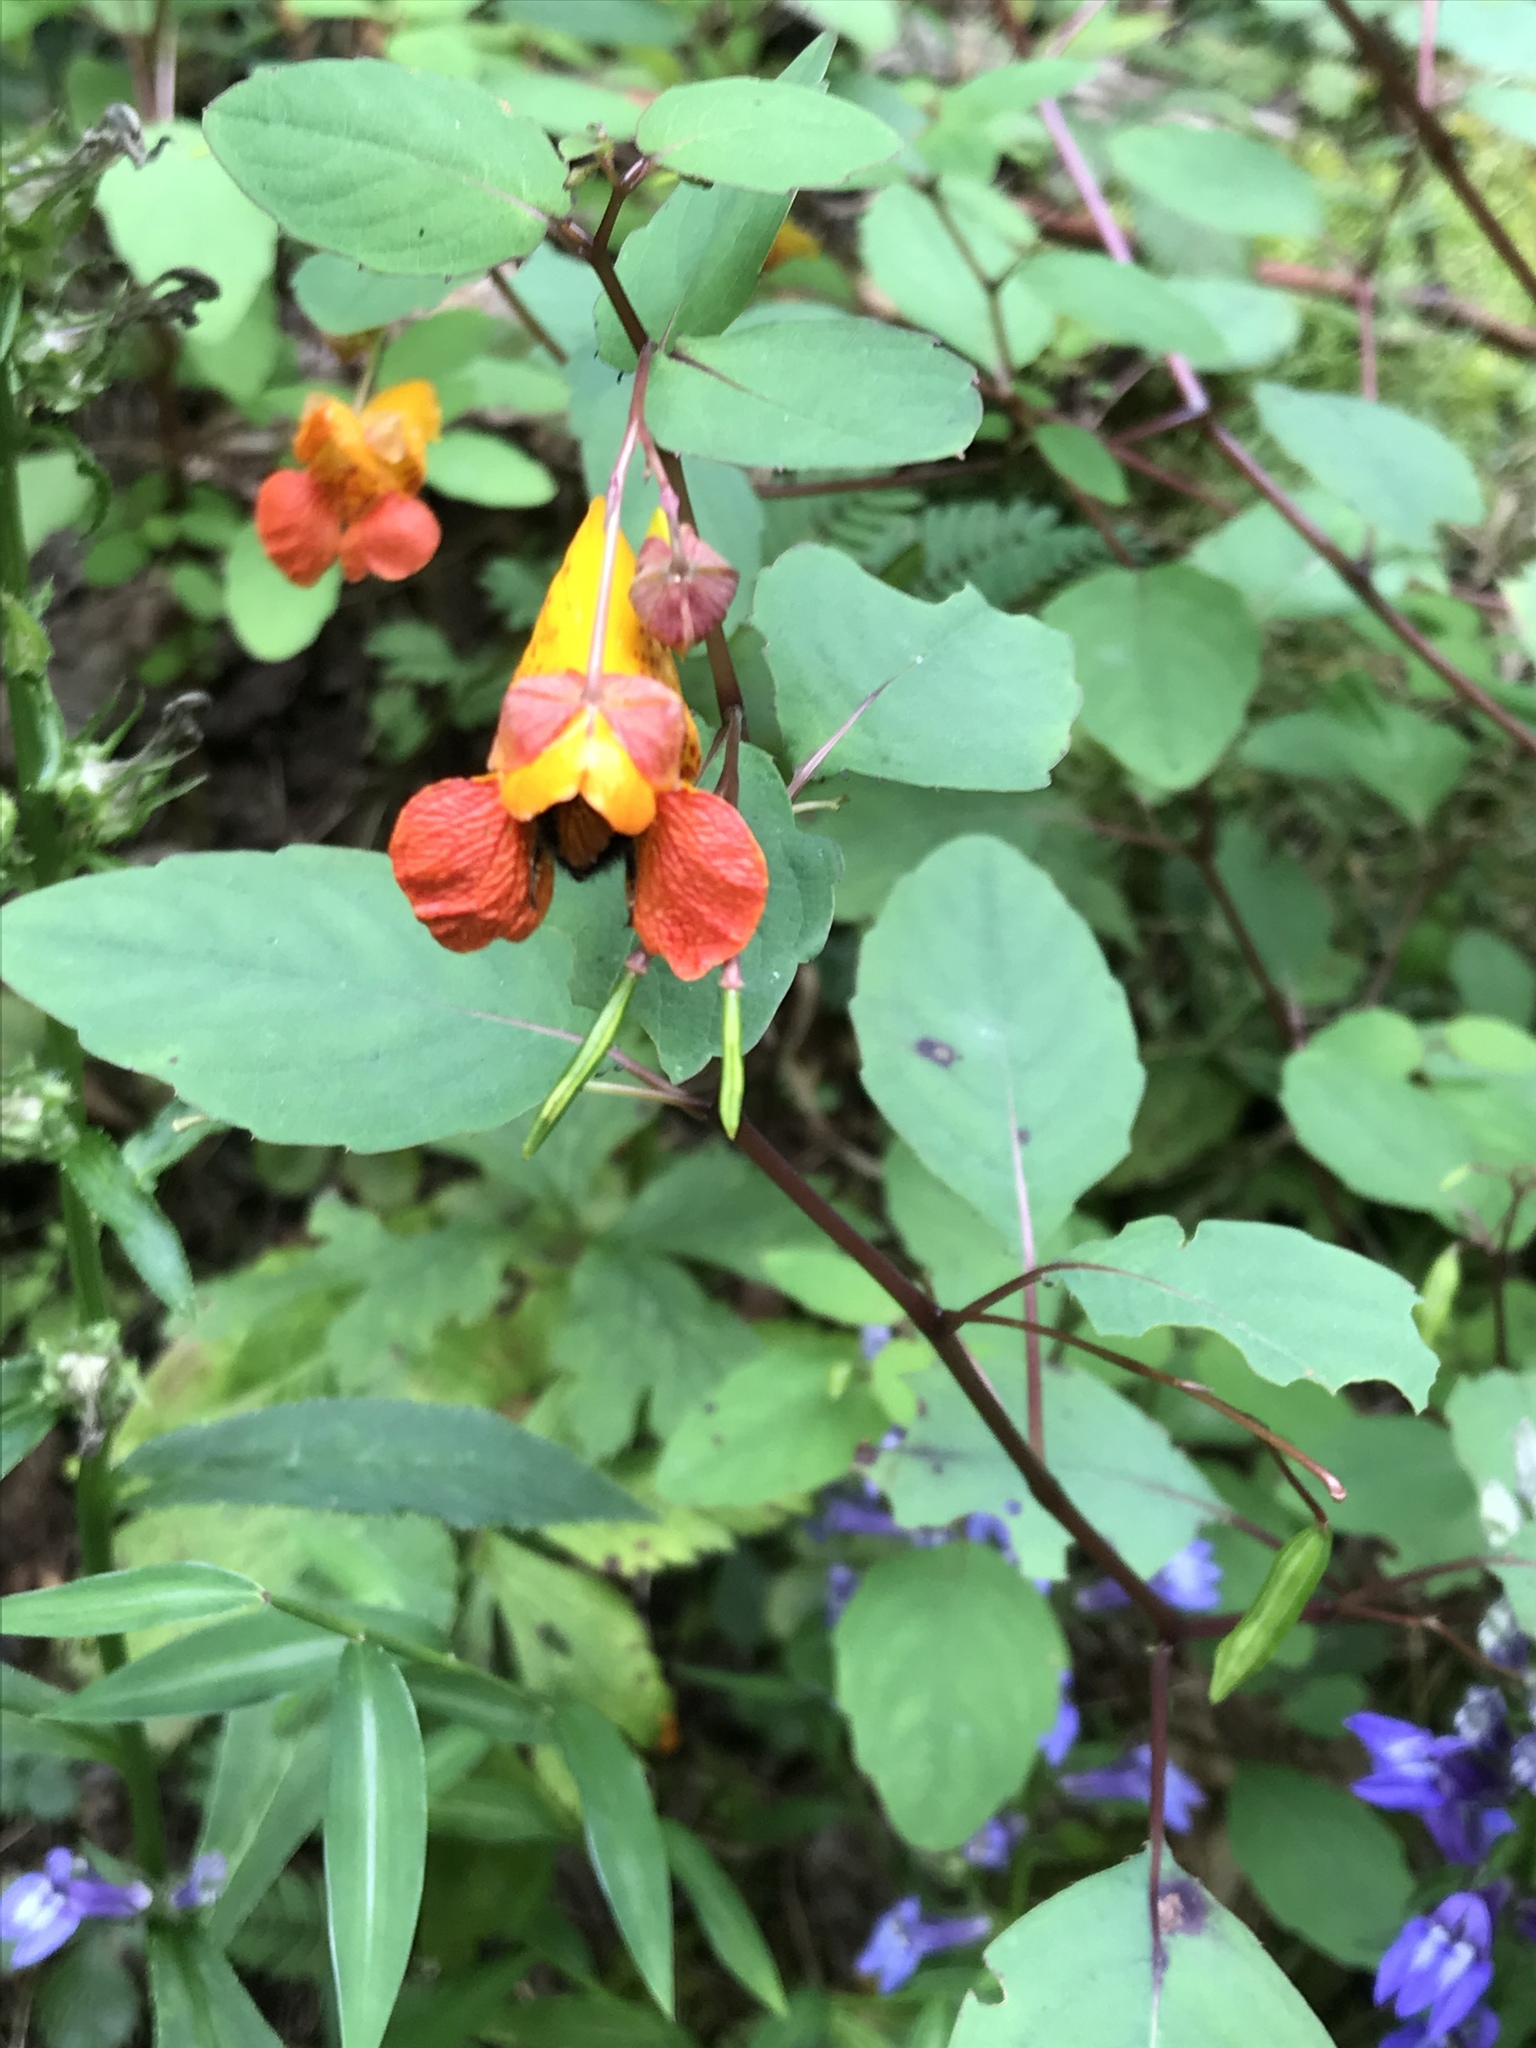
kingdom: Plantae
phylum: Tracheophyta
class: Magnoliopsida
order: Ericales
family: Balsaminaceae
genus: Impatiens
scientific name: Impatiens capensis
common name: Orange balsam
